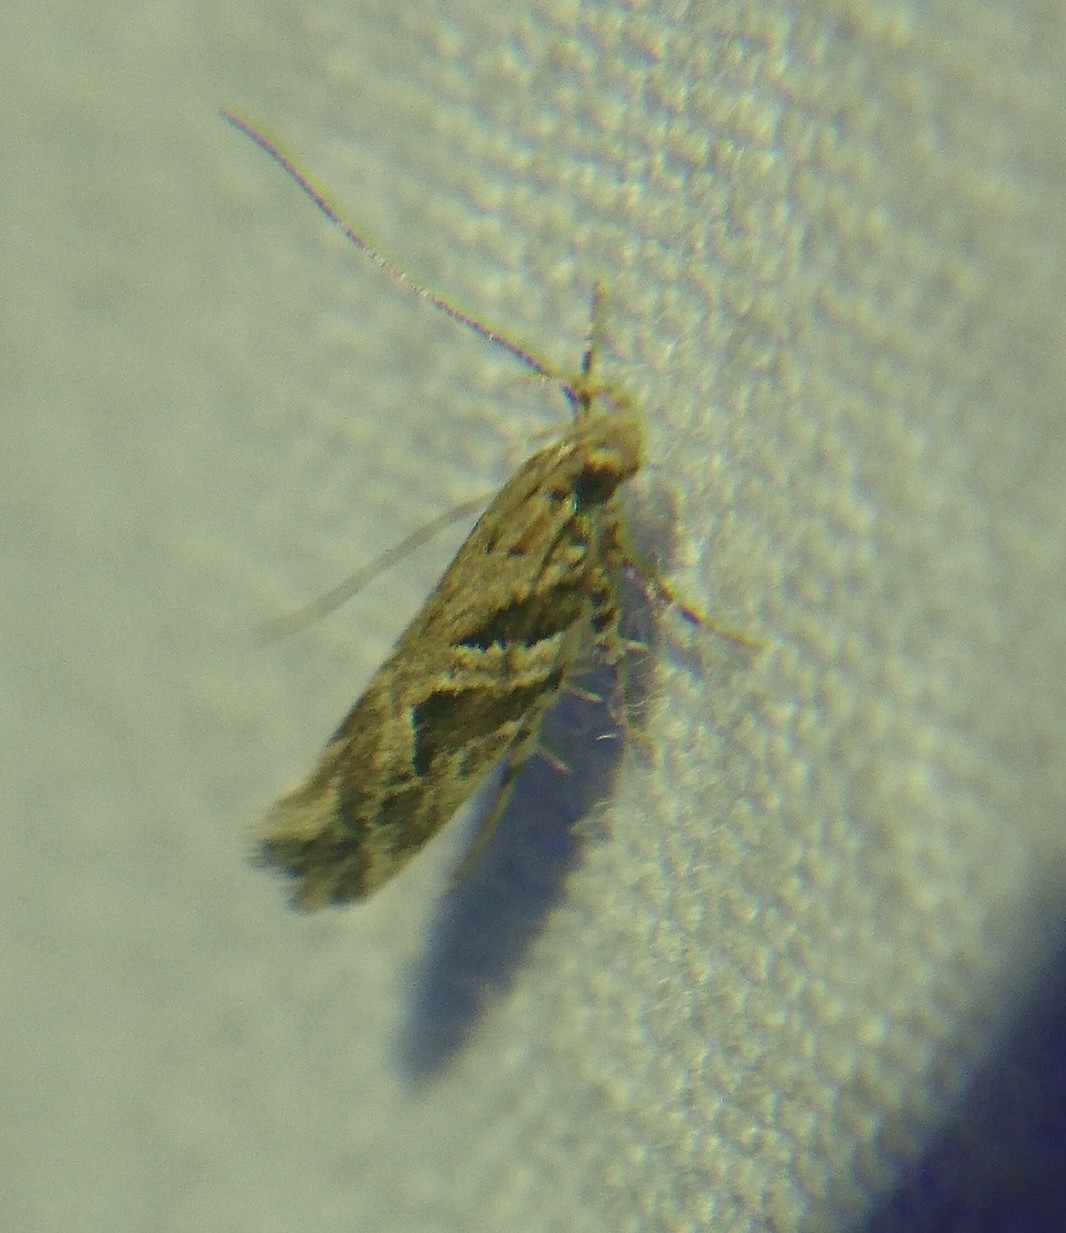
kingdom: Animalia
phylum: Arthropoda
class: Insecta
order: Lepidoptera
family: Gelechiidae
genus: Aristotelia
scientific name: Aristotelia ivae
